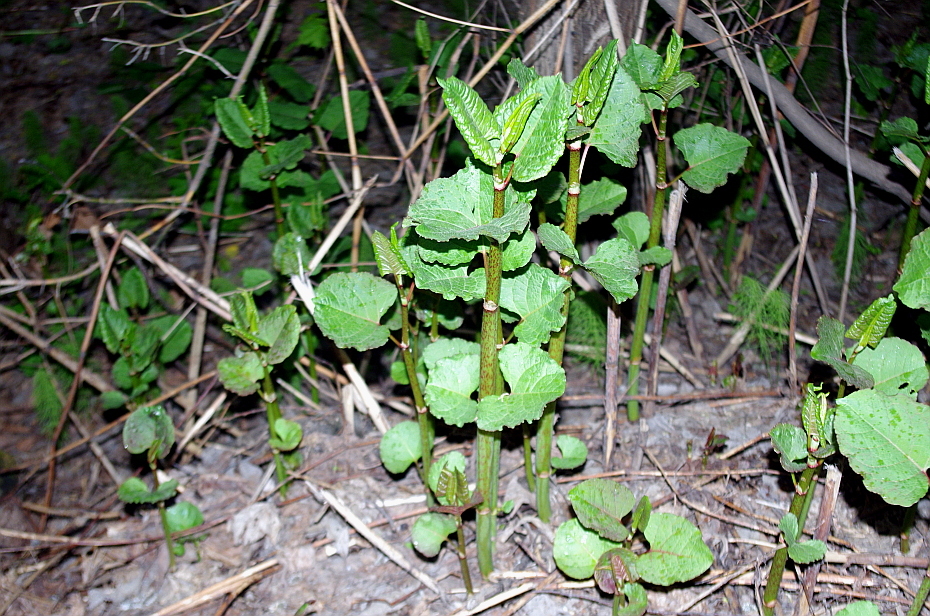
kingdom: Plantae
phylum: Tracheophyta
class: Magnoliopsida
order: Caryophyllales
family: Polygonaceae
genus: Reynoutria
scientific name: Reynoutria bohemica
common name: Bohemian knotweed
